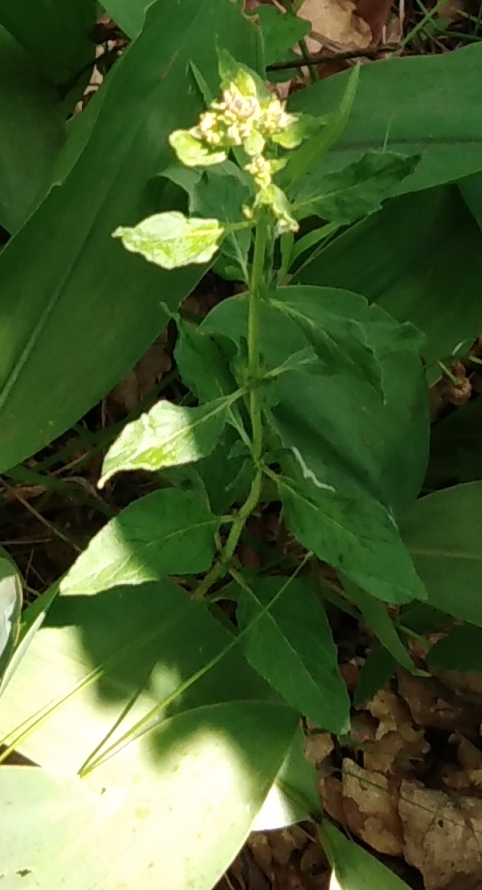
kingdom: Plantae
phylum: Tracheophyta
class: Magnoliopsida
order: Lamiales
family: Lamiaceae
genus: Origanum
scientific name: Origanum vulgare
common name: Wild marjoram
